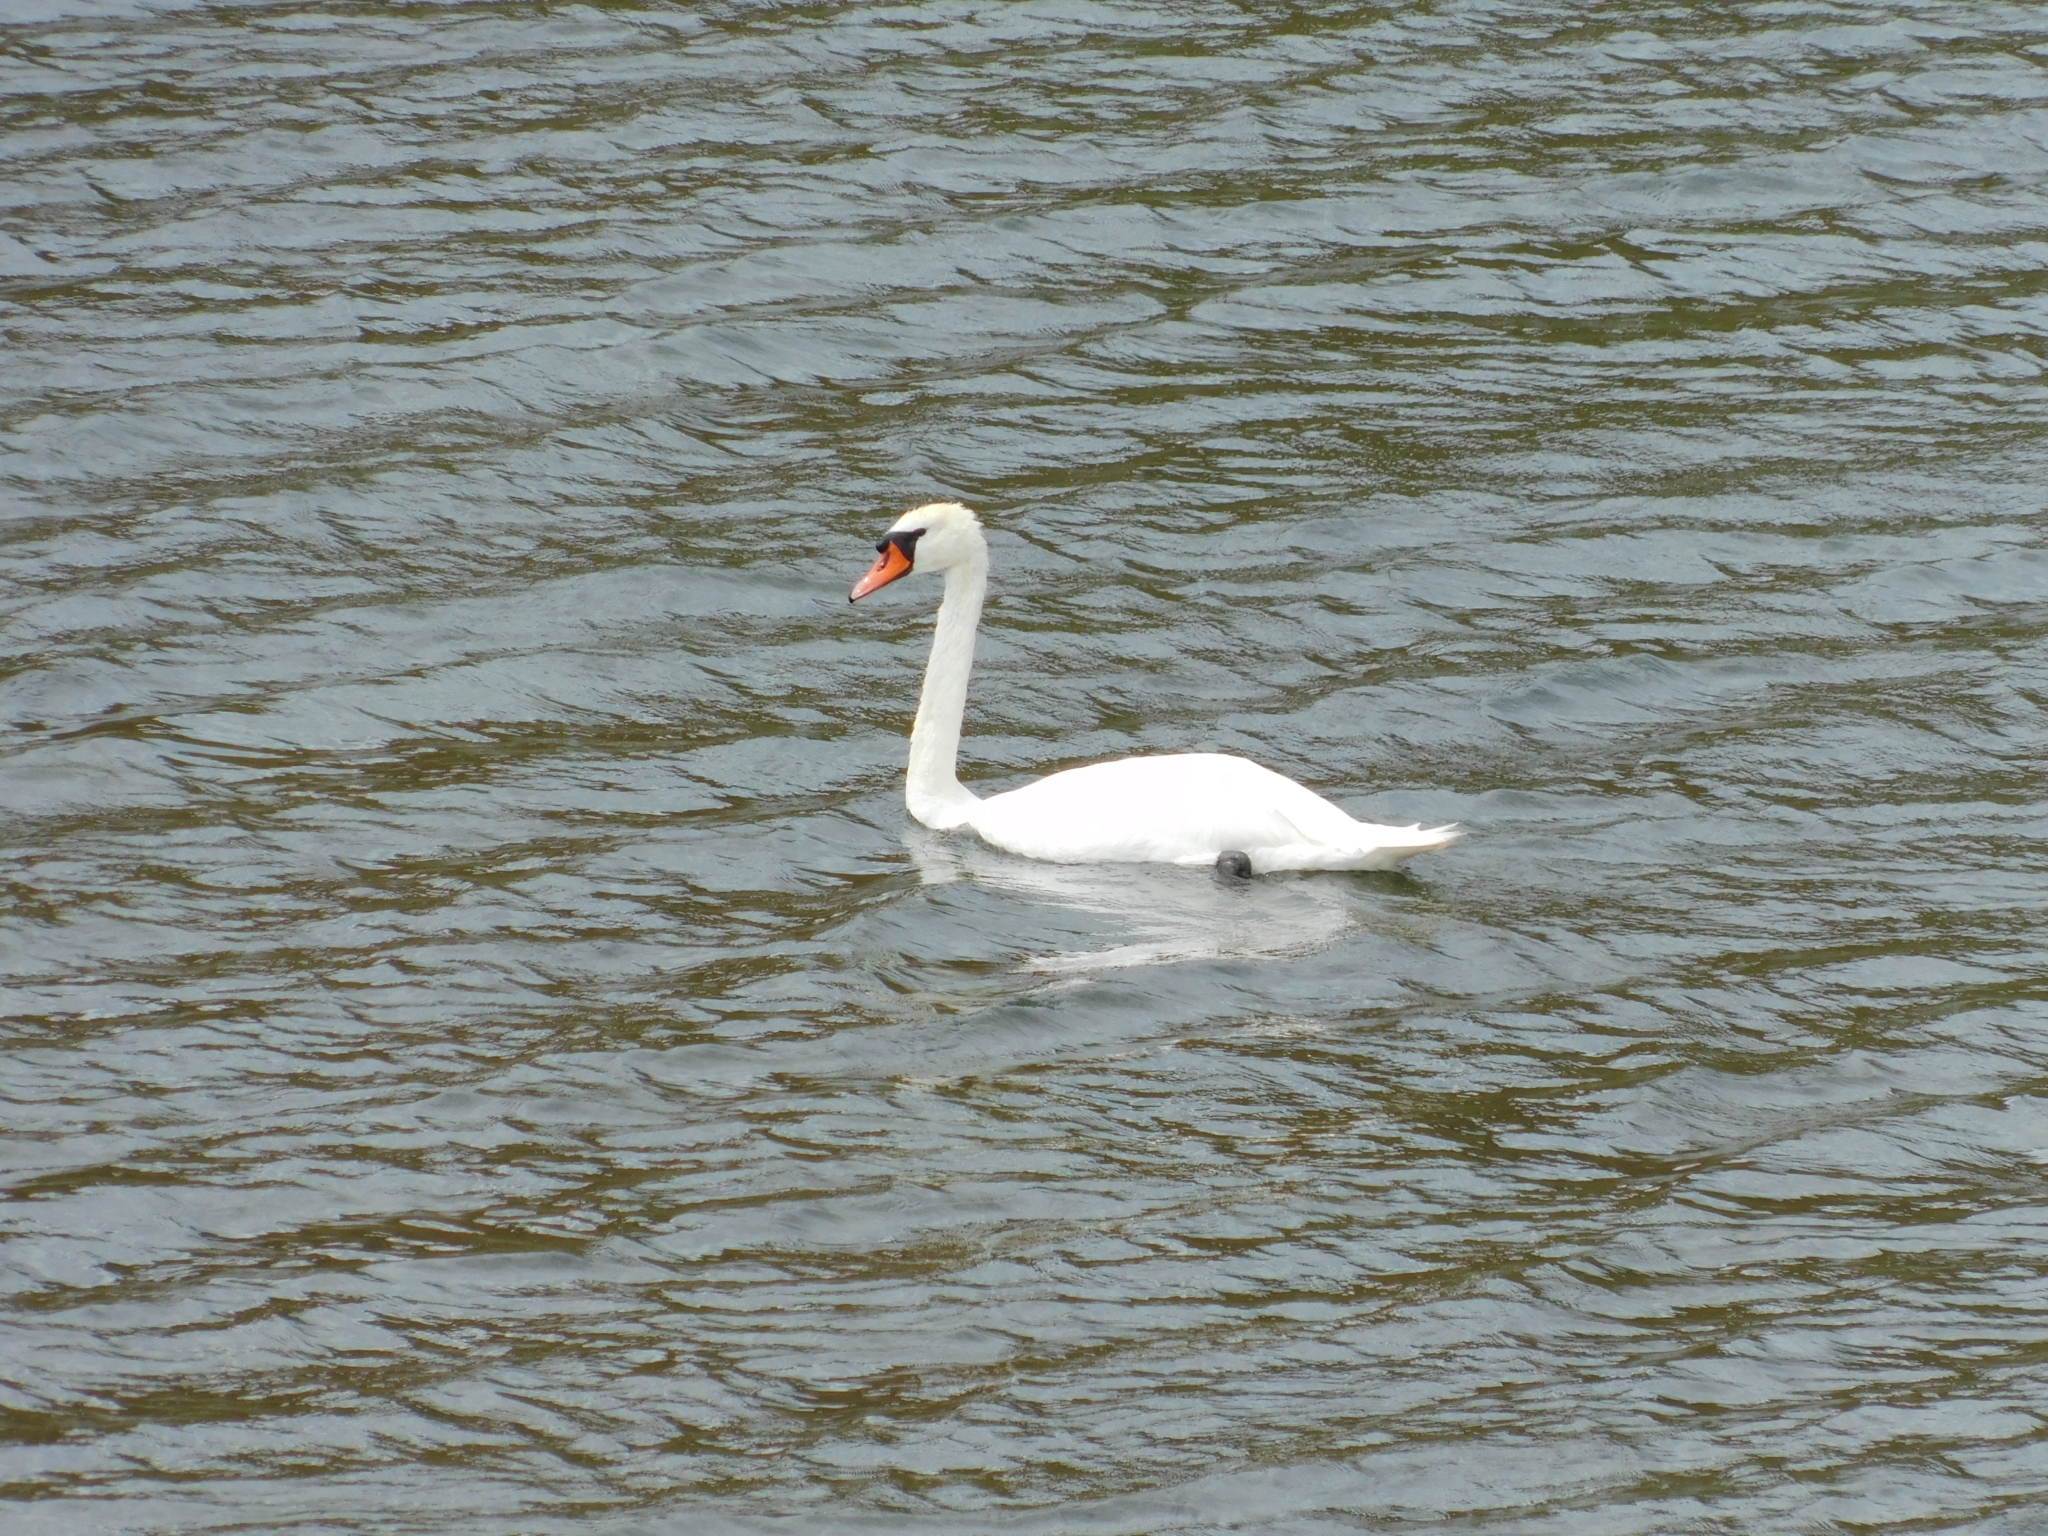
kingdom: Animalia
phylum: Chordata
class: Aves
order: Anseriformes
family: Anatidae
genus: Cygnus
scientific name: Cygnus olor
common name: Mute swan
